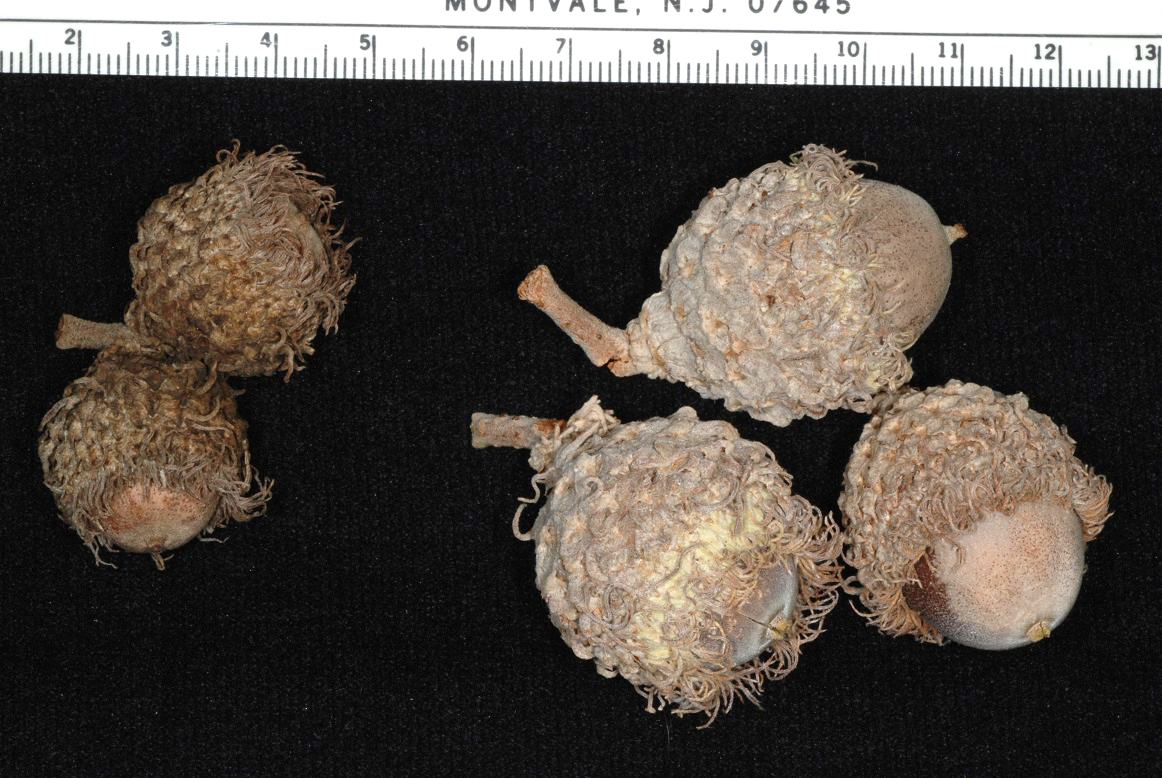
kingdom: Plantae
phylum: Tracheophyta
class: Magnoliopsida
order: Fagales
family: Fagaceae
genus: Quercus
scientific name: Quercus macrocarpa
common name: Bur oak
